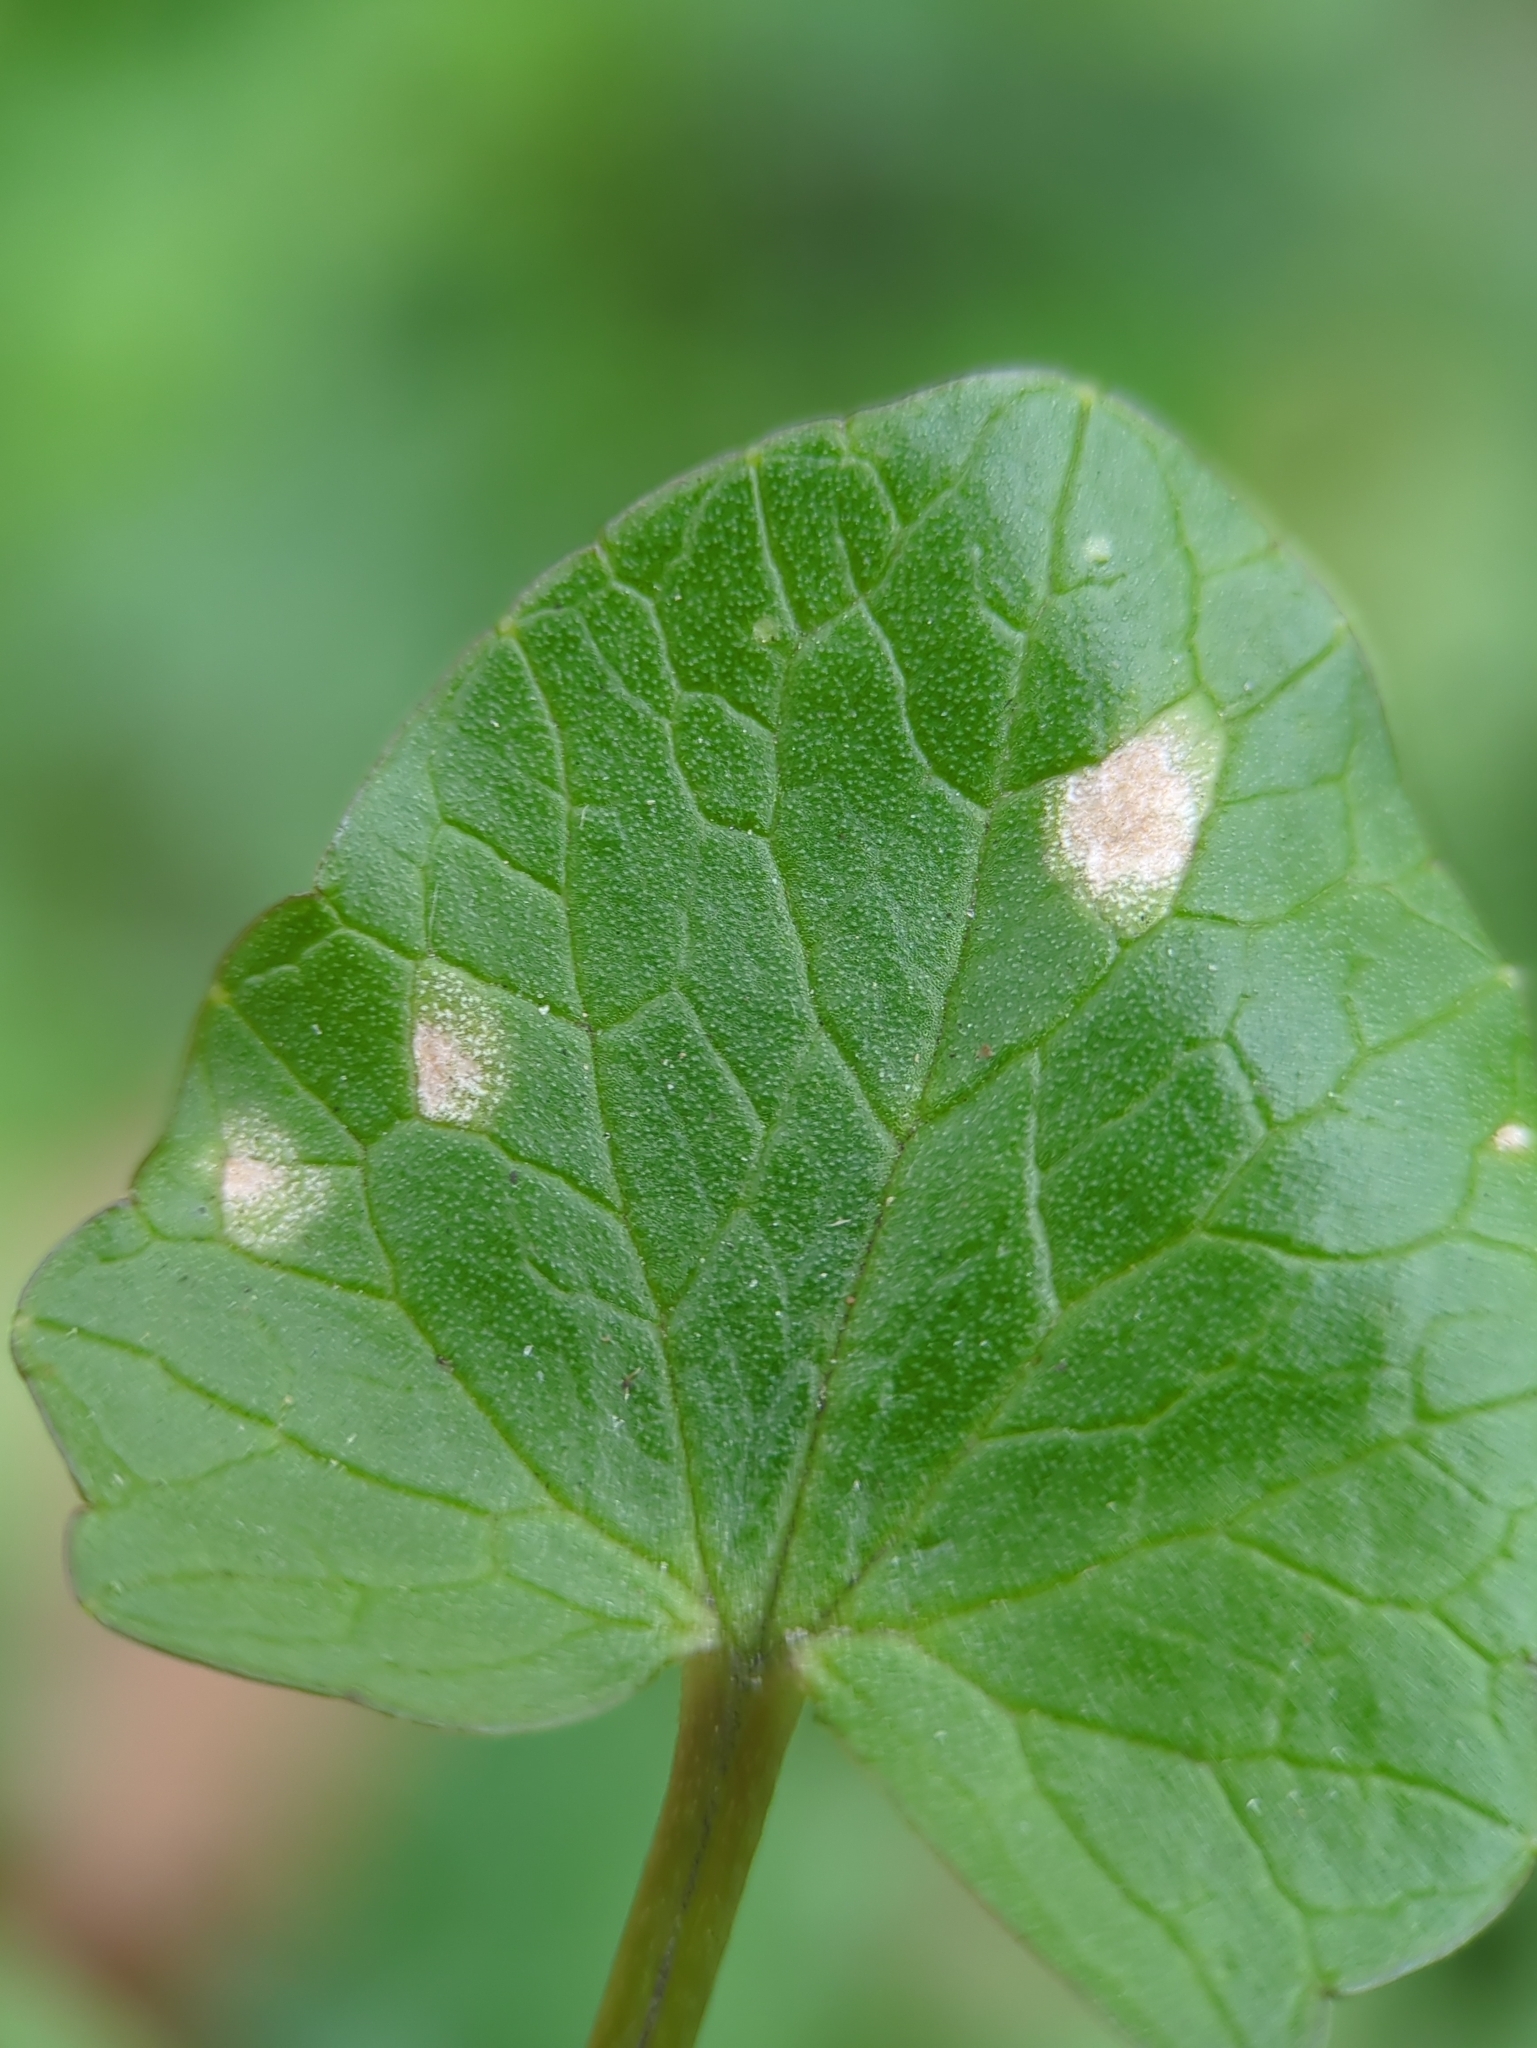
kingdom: Fungi
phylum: Basidiomycota
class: Exobasidiomycetes
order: Entylomatales
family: Entylomataceae
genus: Entyloma
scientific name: Entyloma ficariae
